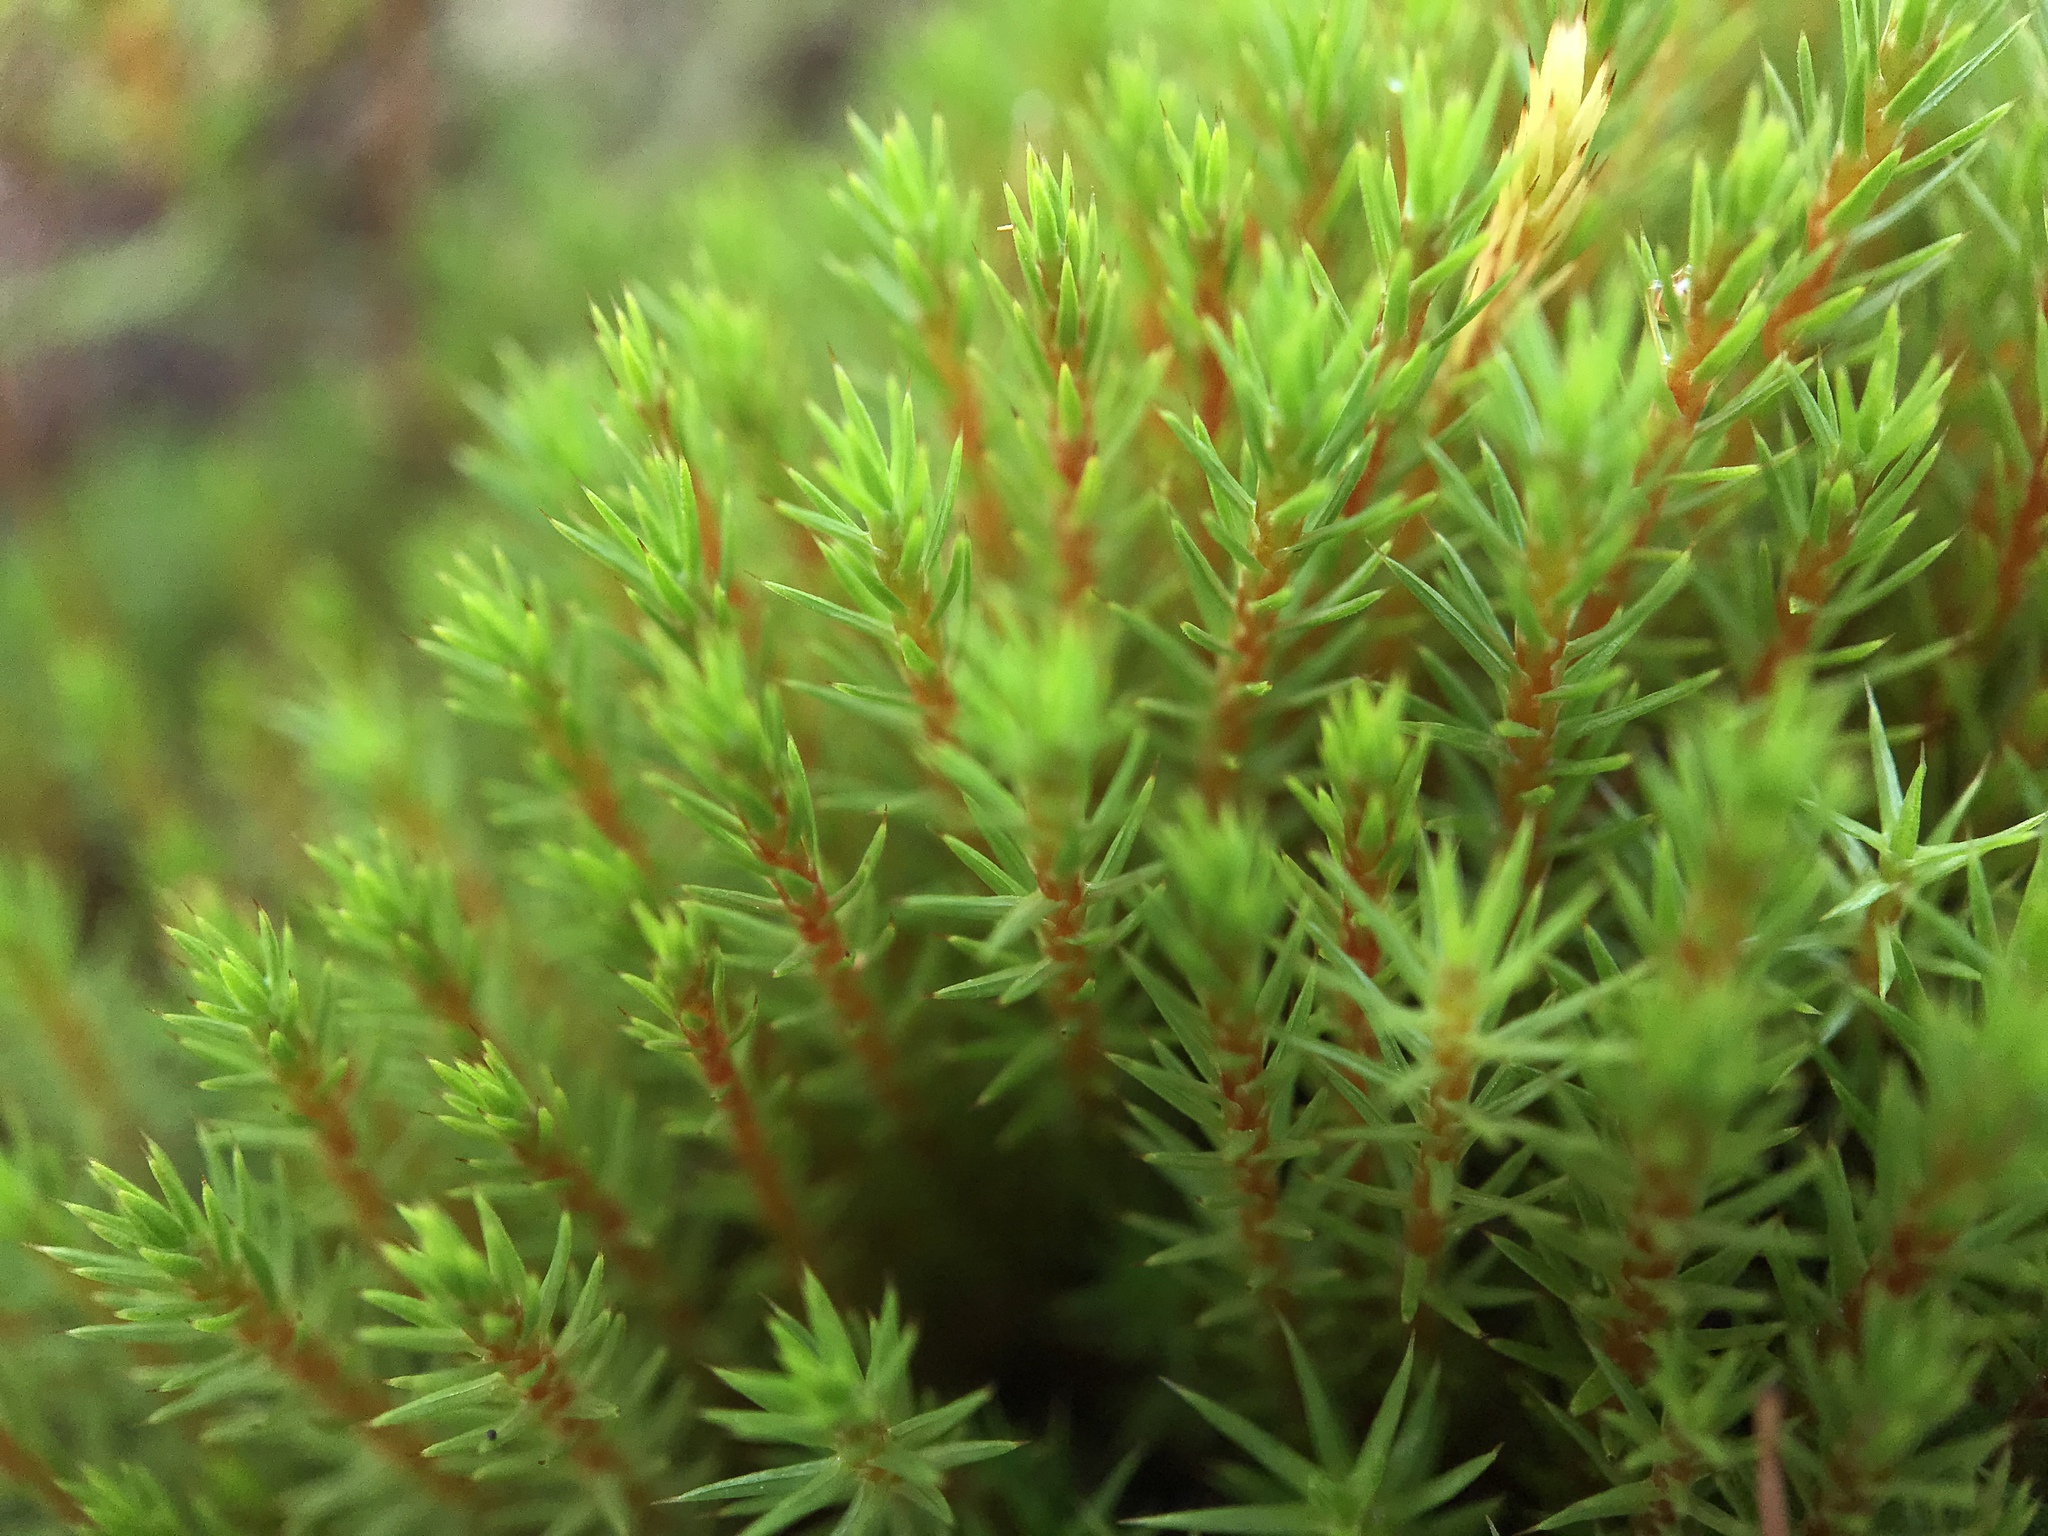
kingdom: Plantae
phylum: Bryophyta
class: Polytrichopsida
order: Polytrichales
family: Polytrichaceae
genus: Polytrichum
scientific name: Polytrichum strictum
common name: Bog haircap moss
